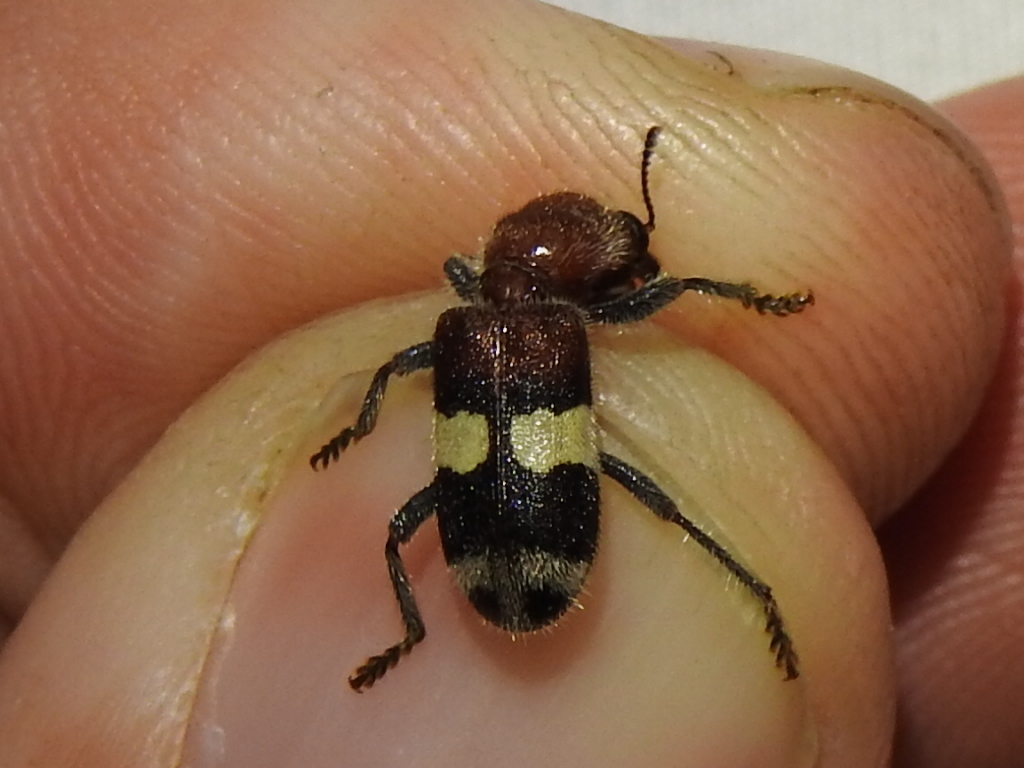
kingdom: Animalia
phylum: Arthropoda
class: Insecta
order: Coleoptera
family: Cleridae
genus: Enoclerus
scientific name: Enoclerus quadrisignatus
